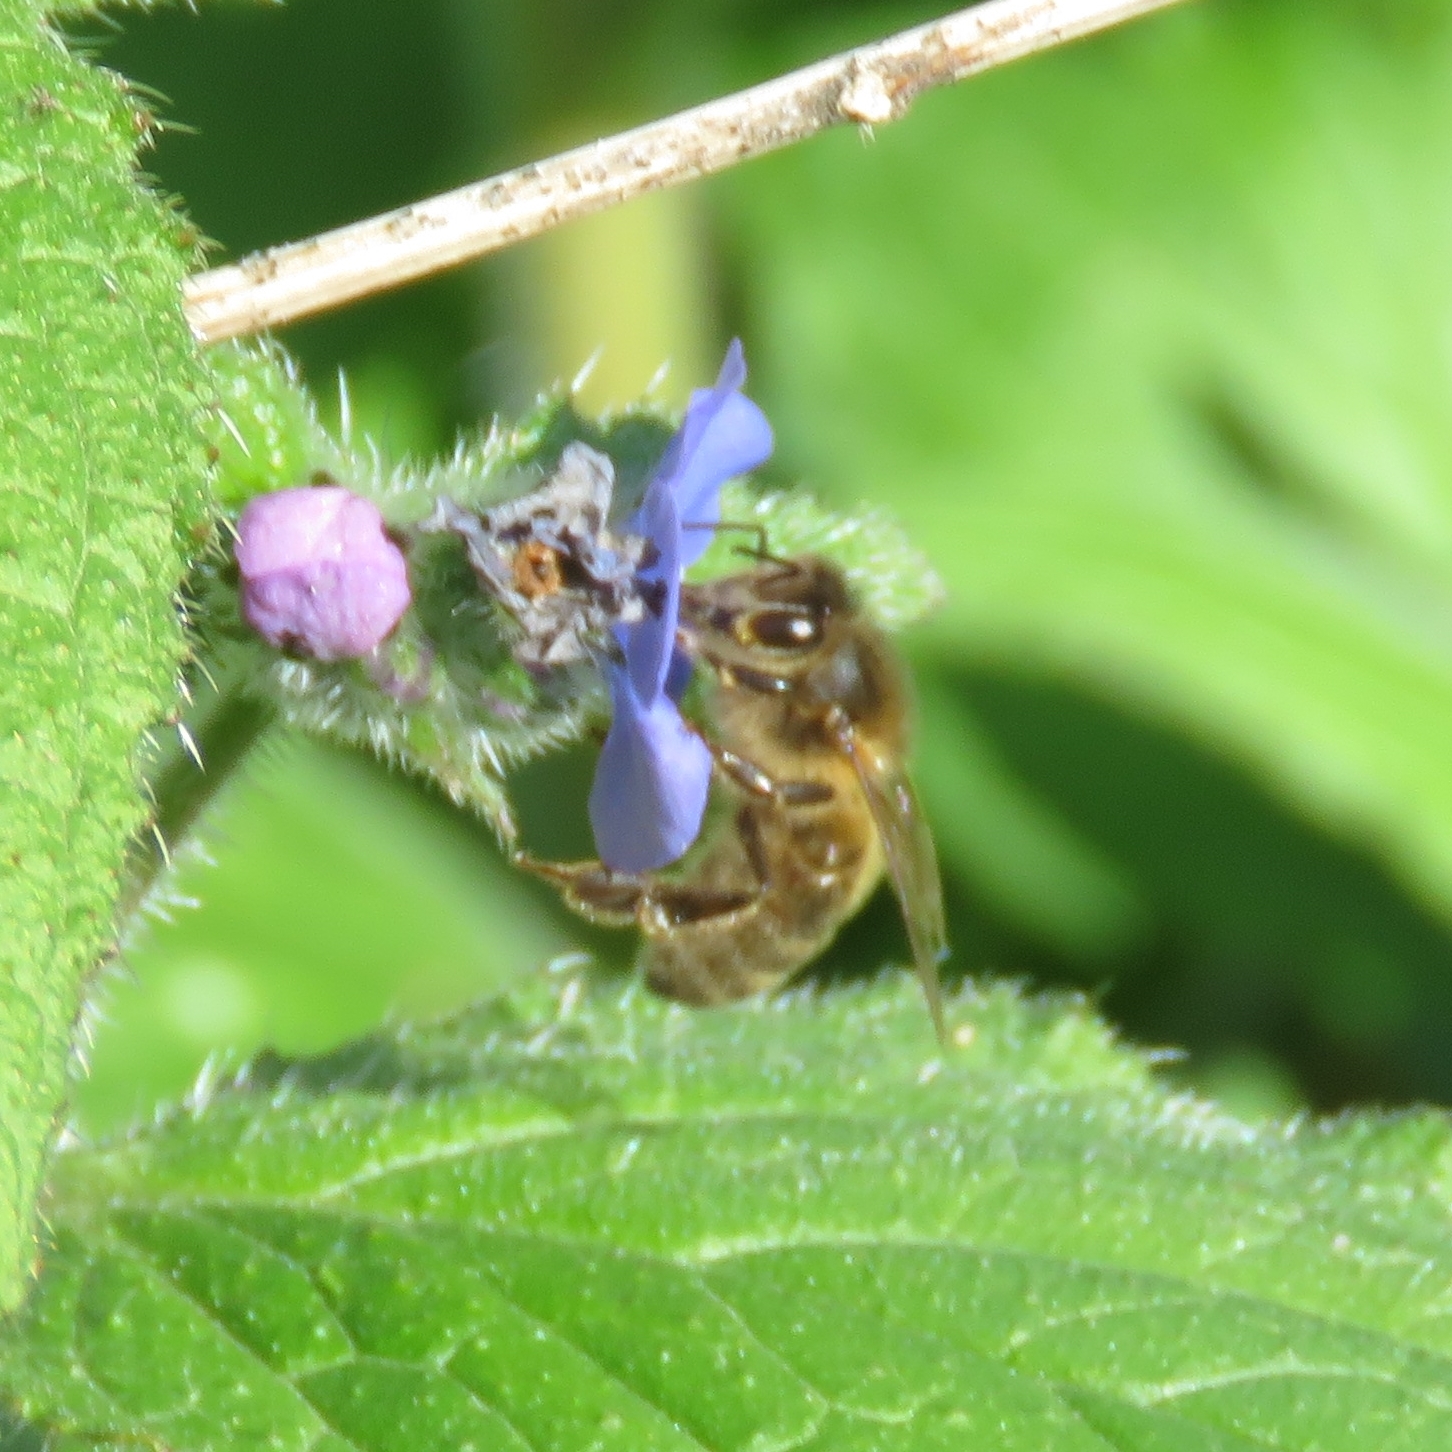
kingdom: Animalia
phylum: Arthropoda
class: Insecta
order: Hymenoptera
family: Apidae
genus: Apis
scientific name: Apis mellifera
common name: Honey bee
